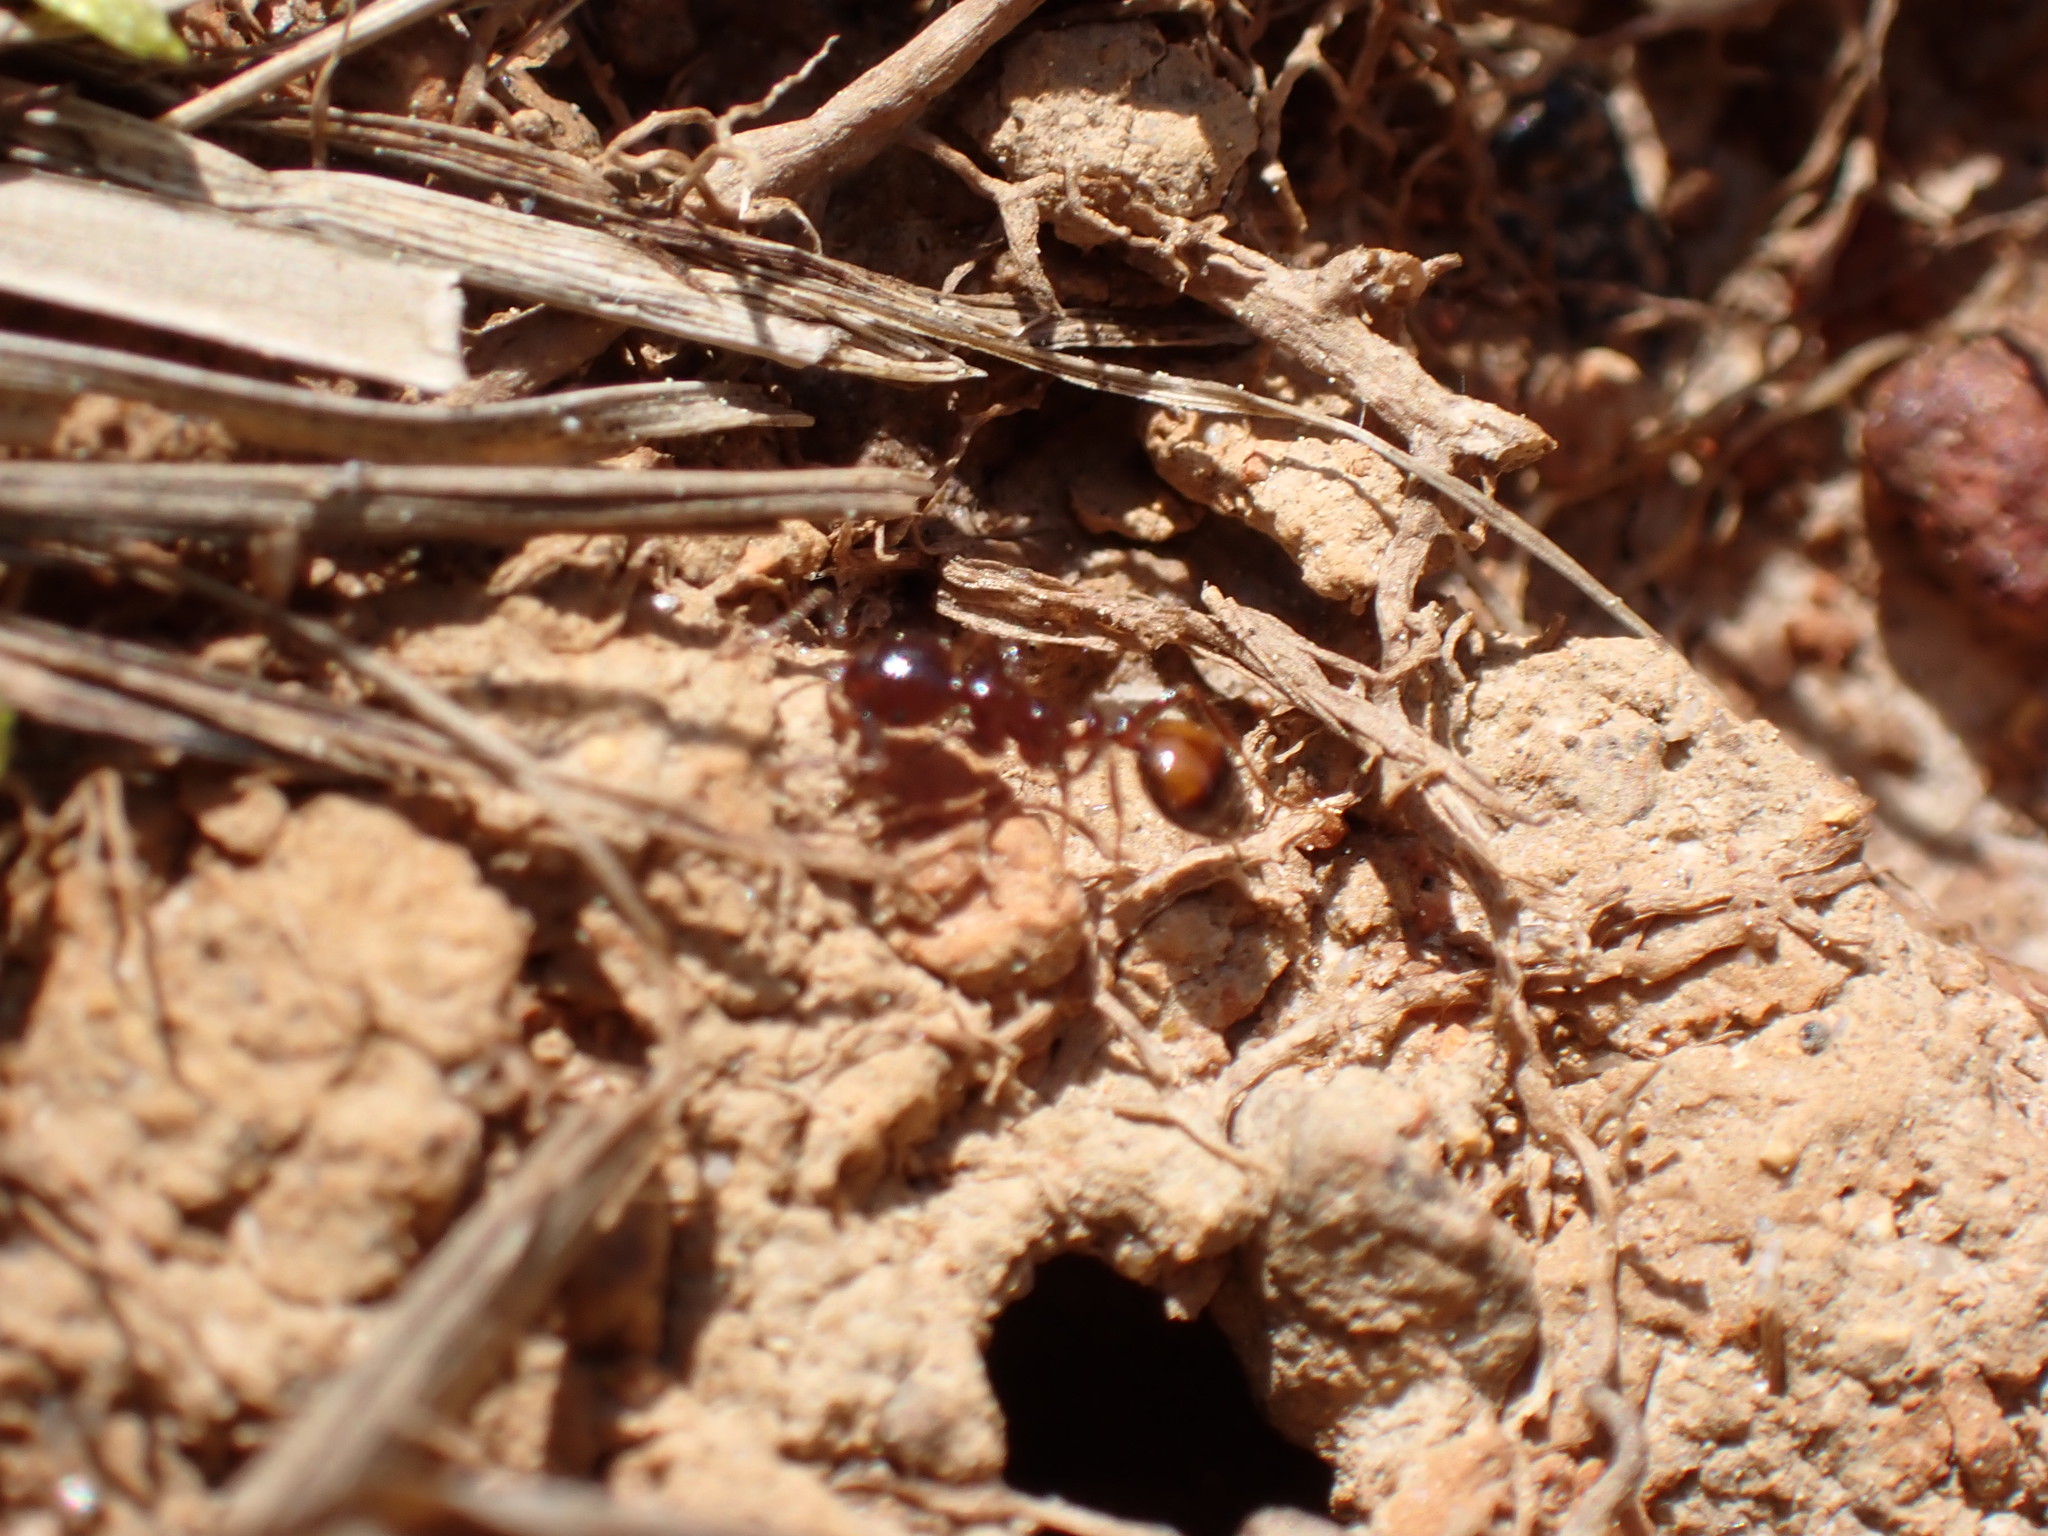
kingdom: Animalia
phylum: Arthropoda
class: Insecta
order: Hymenoptera
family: Formicidae
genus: Solenopsis
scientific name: Solenopsis
